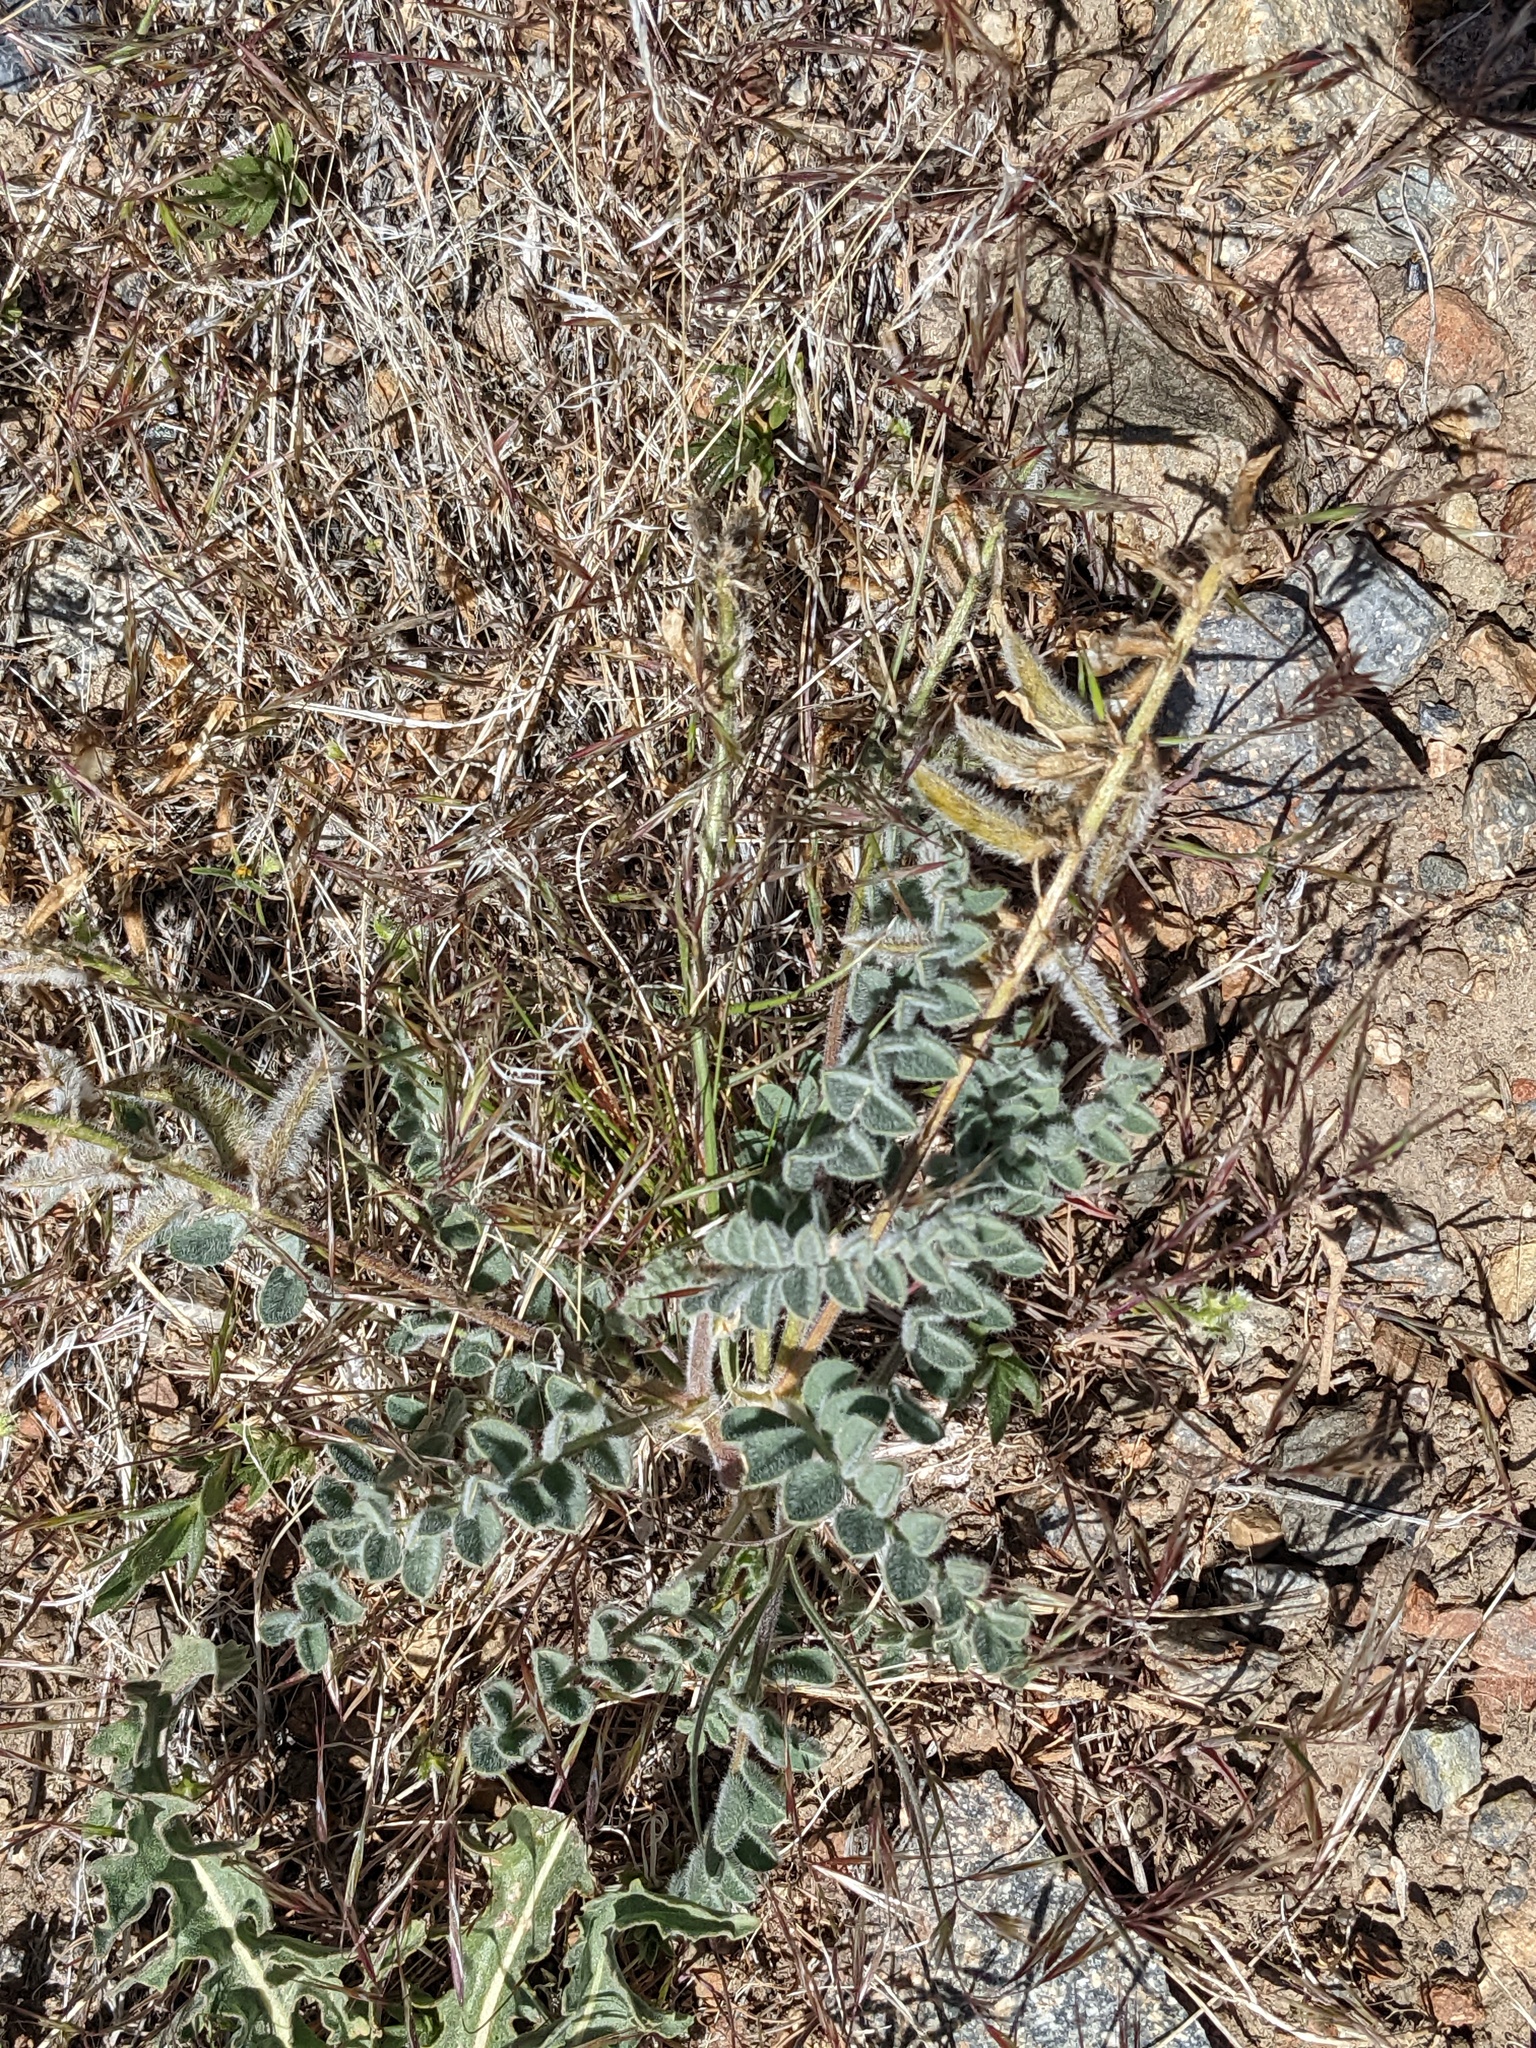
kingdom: Plantae
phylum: Tracheophyta
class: Magnoliopsida
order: Fabales
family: Fabaceae
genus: Astragalus
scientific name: Astragalus malacus
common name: Shaggy milk-vetch
